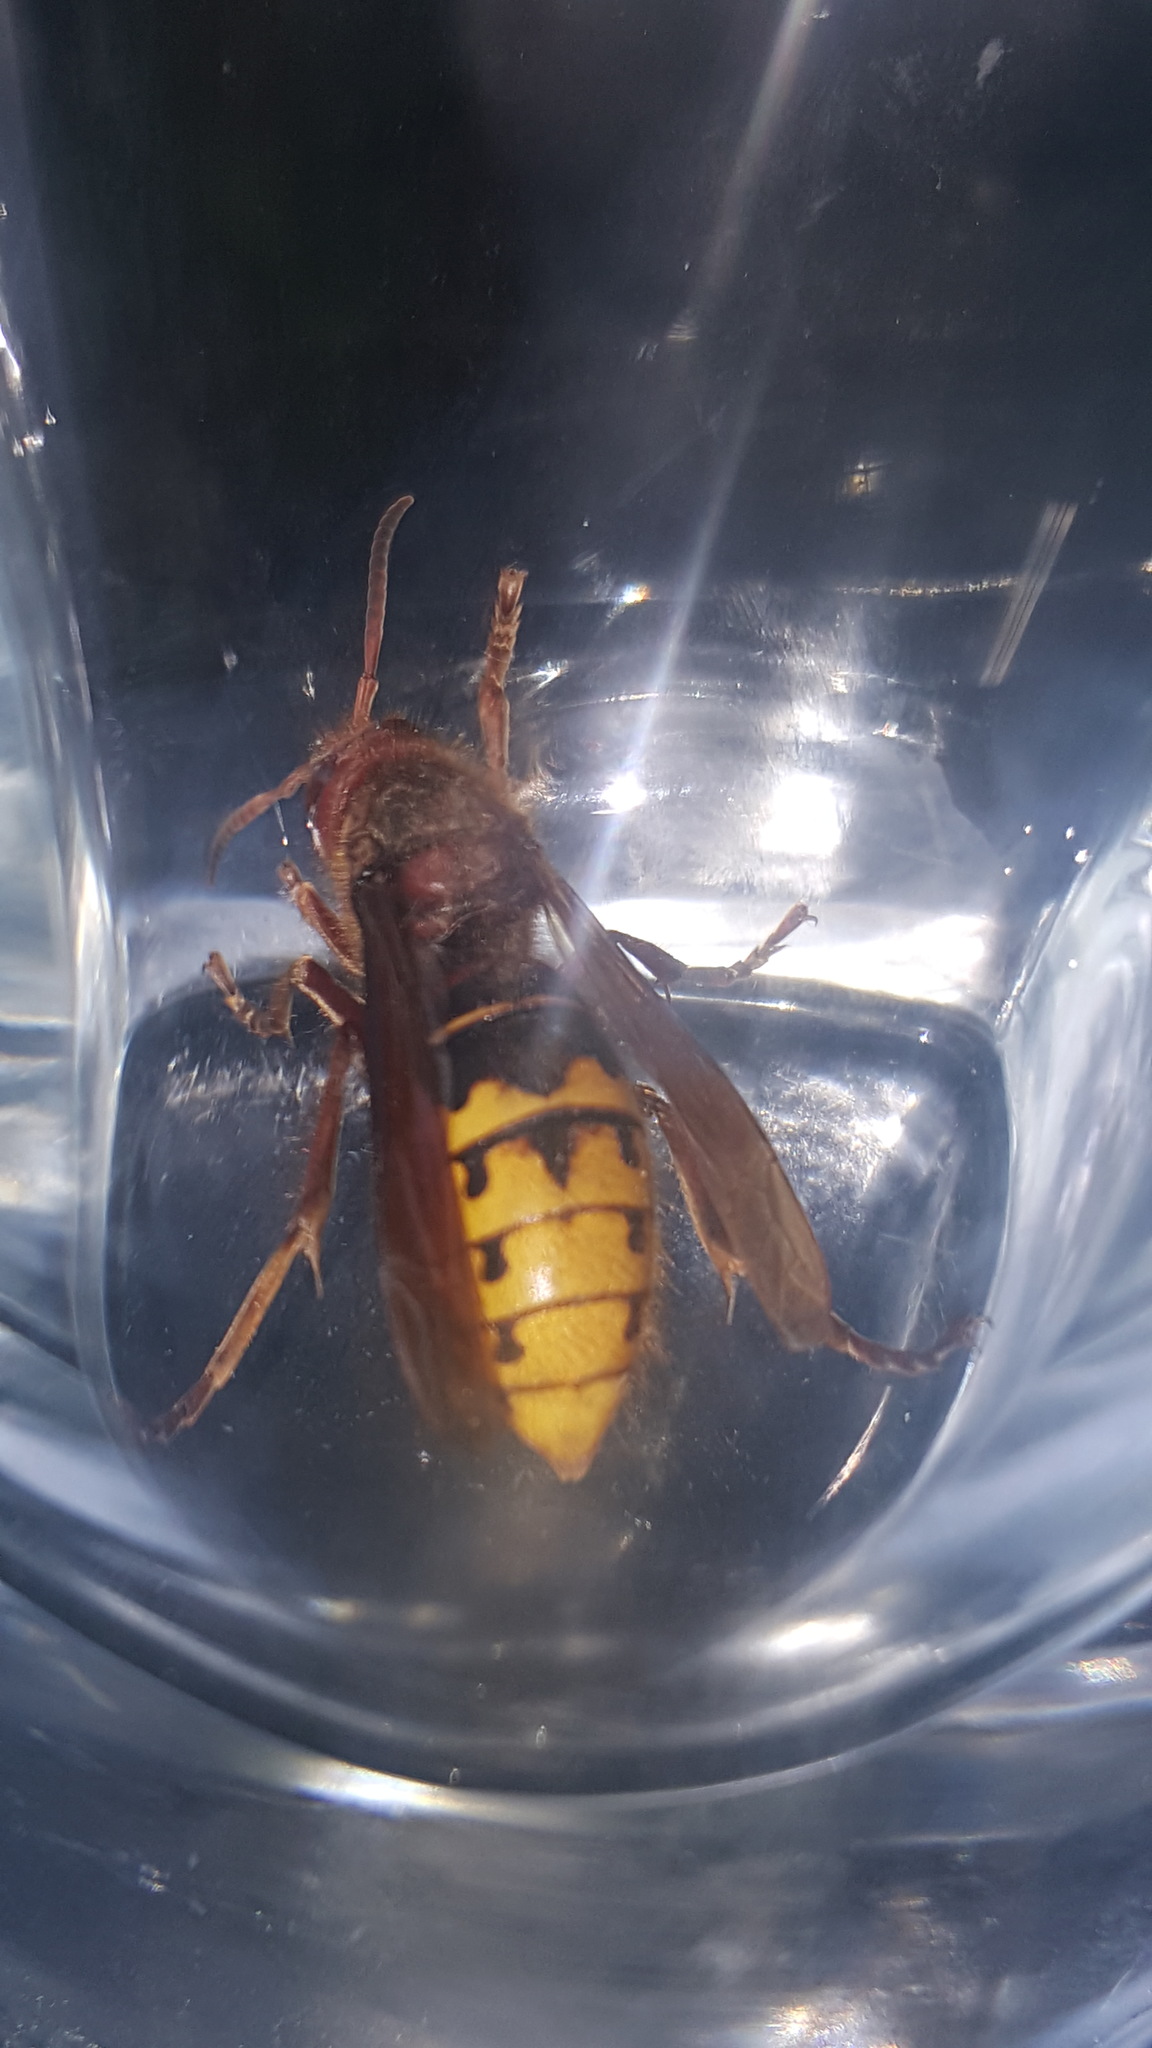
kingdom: Animalia
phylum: Arthropoda
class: Insecta
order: Hymenoptera
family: Vespidae
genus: Vespa
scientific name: Vespa crabro
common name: Hornet
